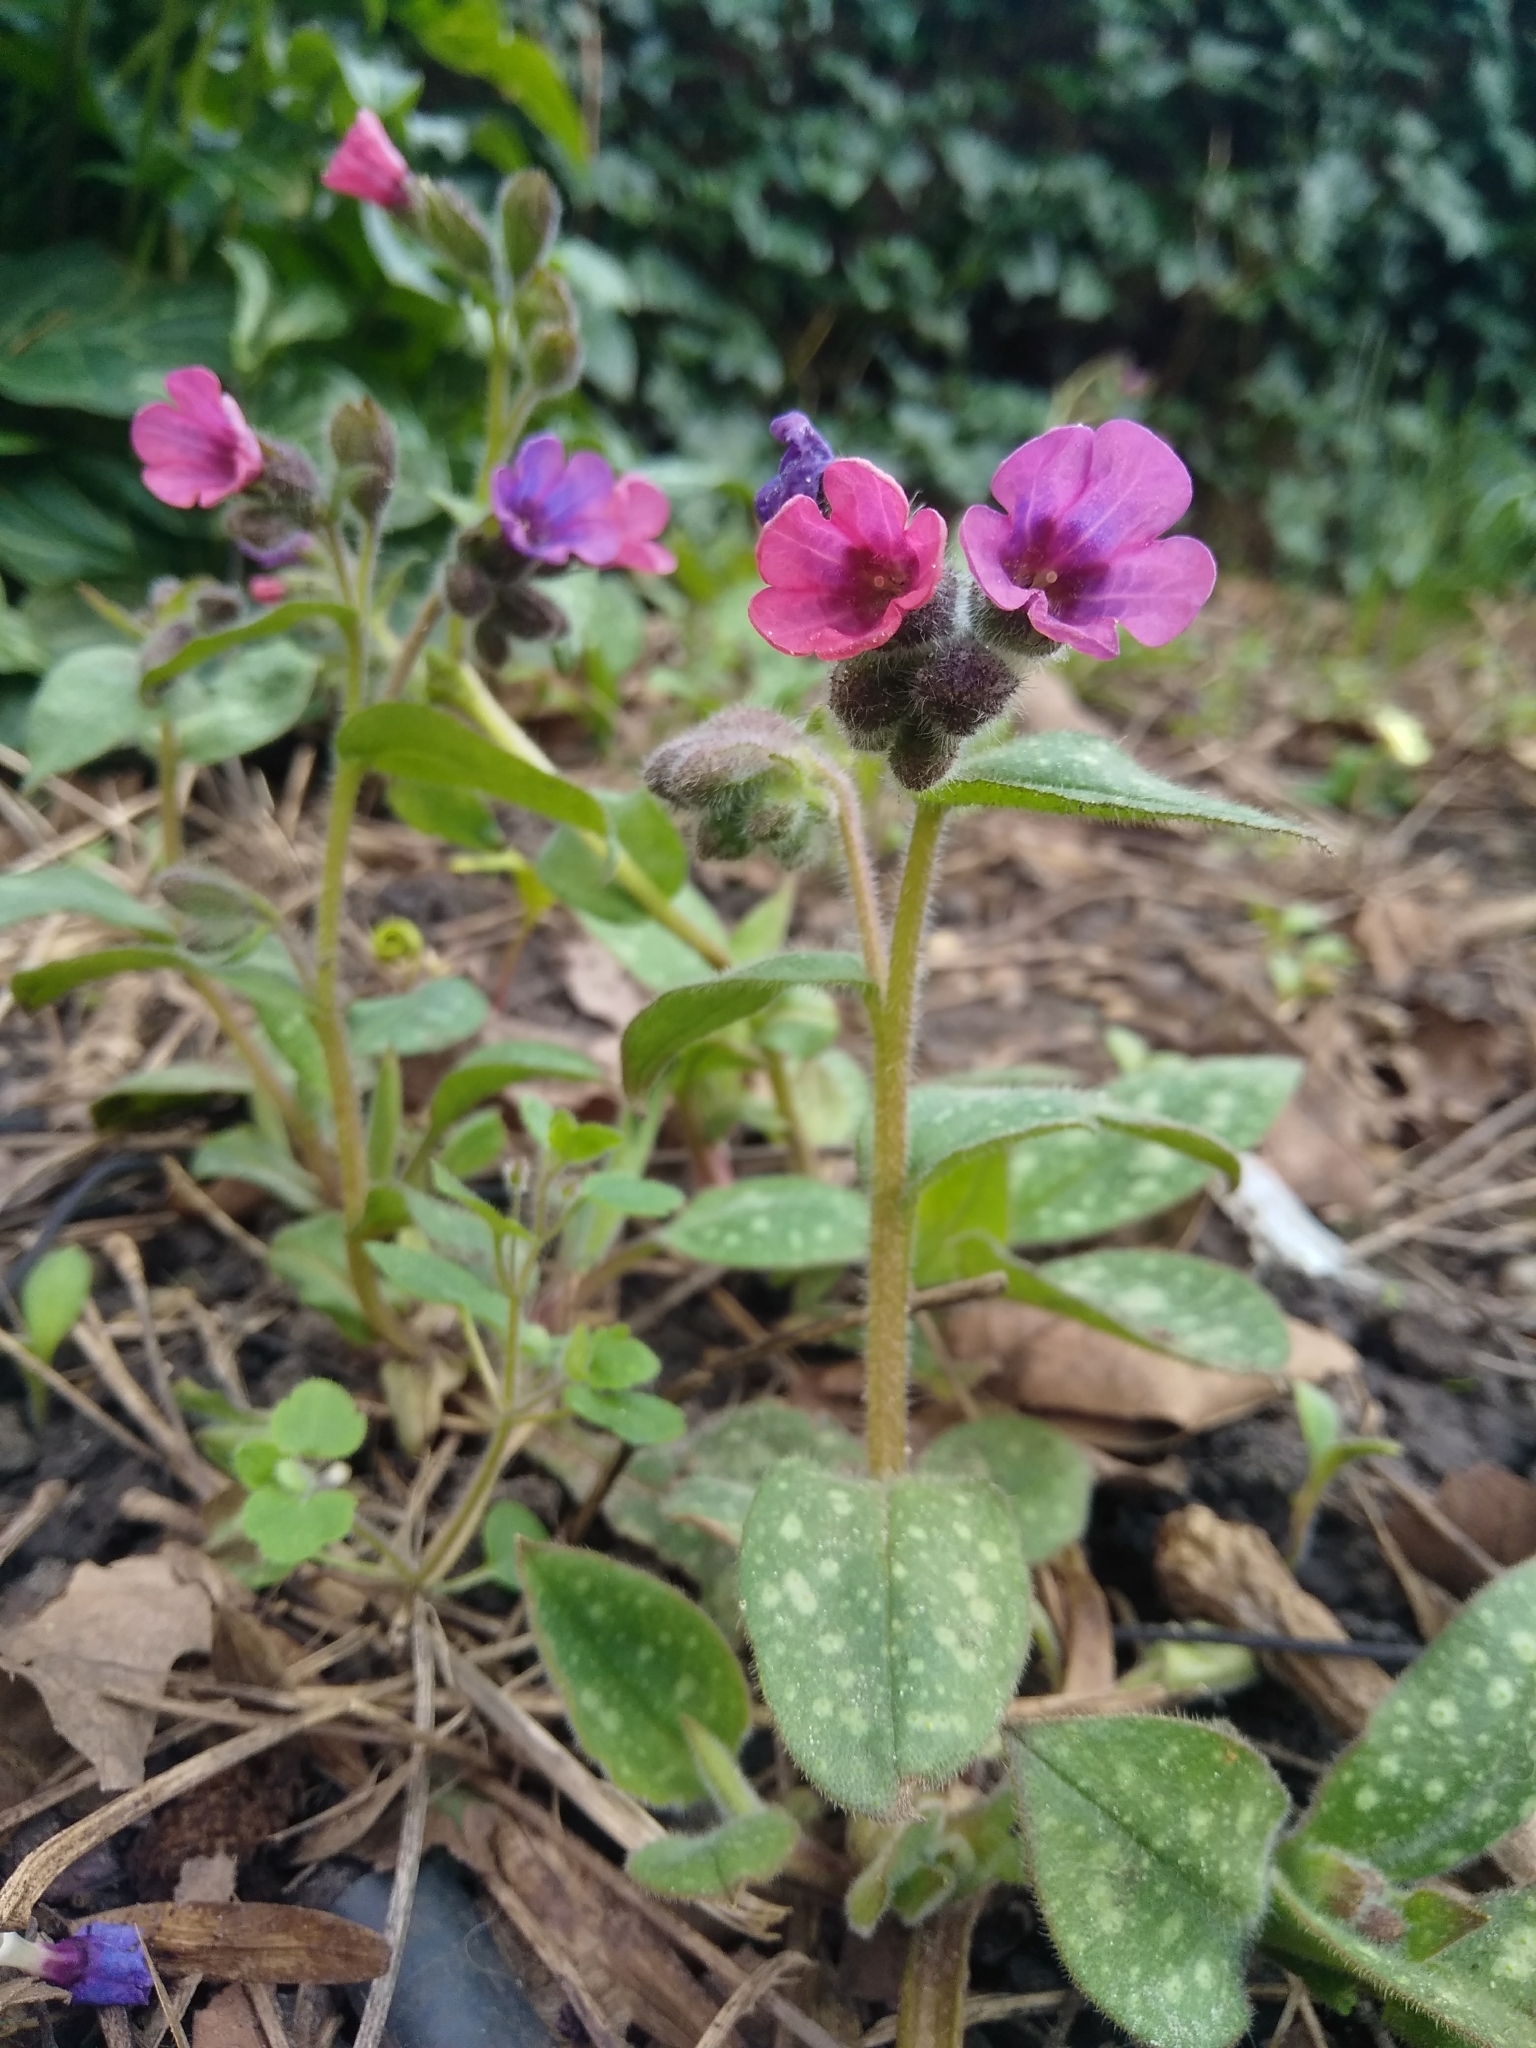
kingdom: Plantae
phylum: Tracheophyta
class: Magnoliopsida
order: Boraginales
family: Boraginaceae
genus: Pulmonaria
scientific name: Pulmonaria officinalis
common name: Lungwort
